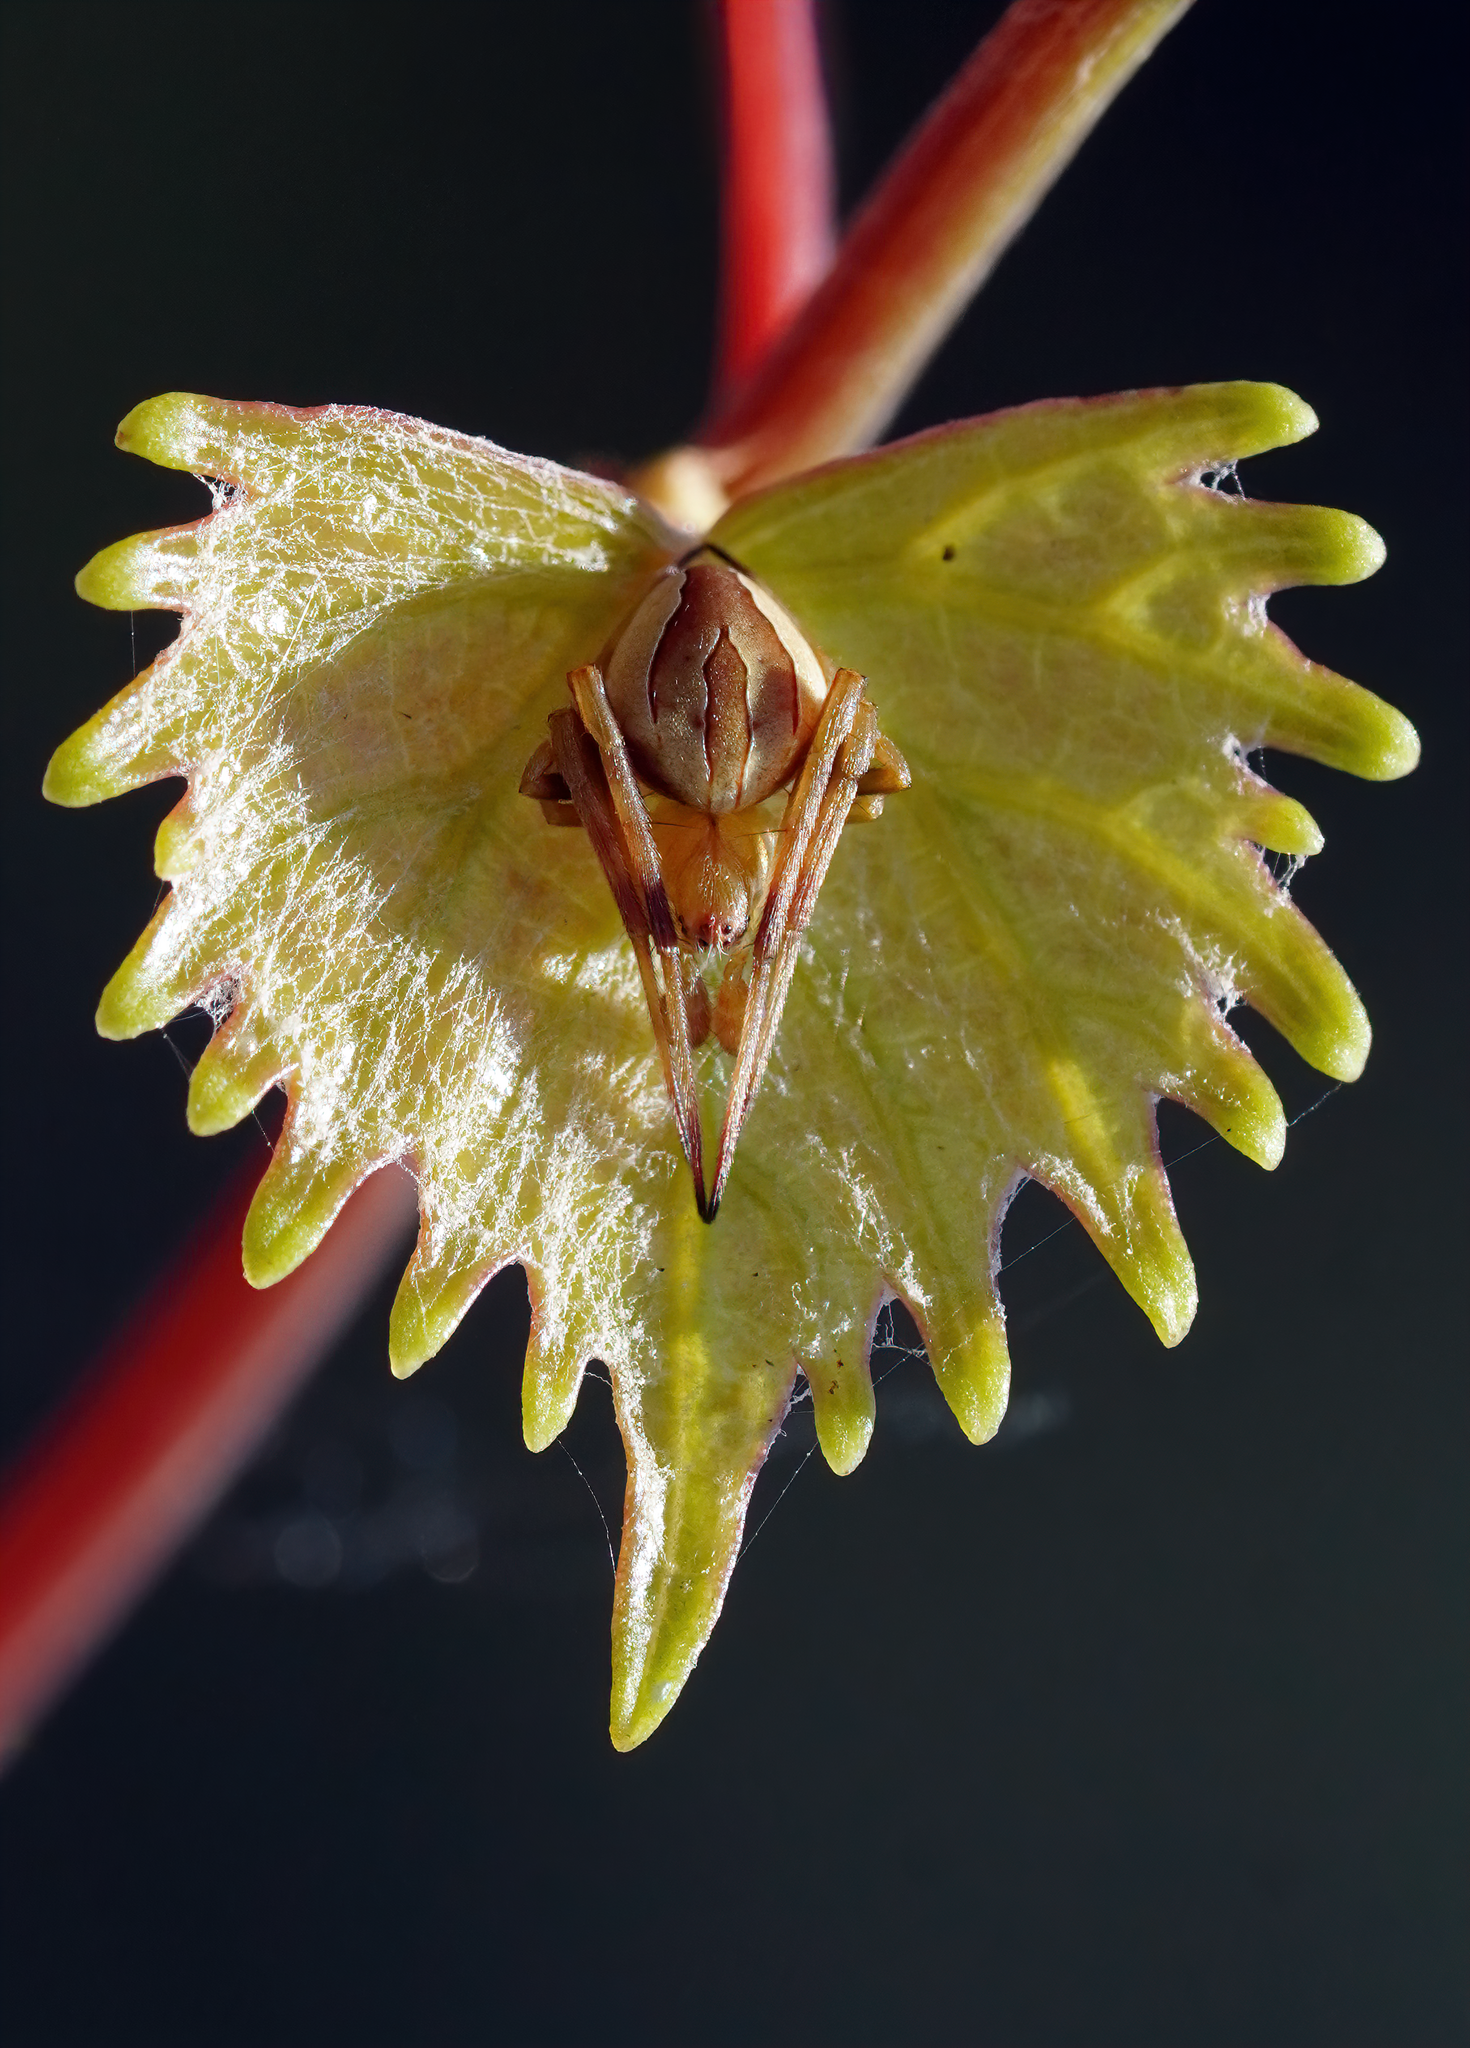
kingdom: Animalia
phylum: Arthropoda
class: Arachnida
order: Araneae
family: Araneidae
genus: Acacesia
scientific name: Acacesia hamata
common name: Orb weavers
